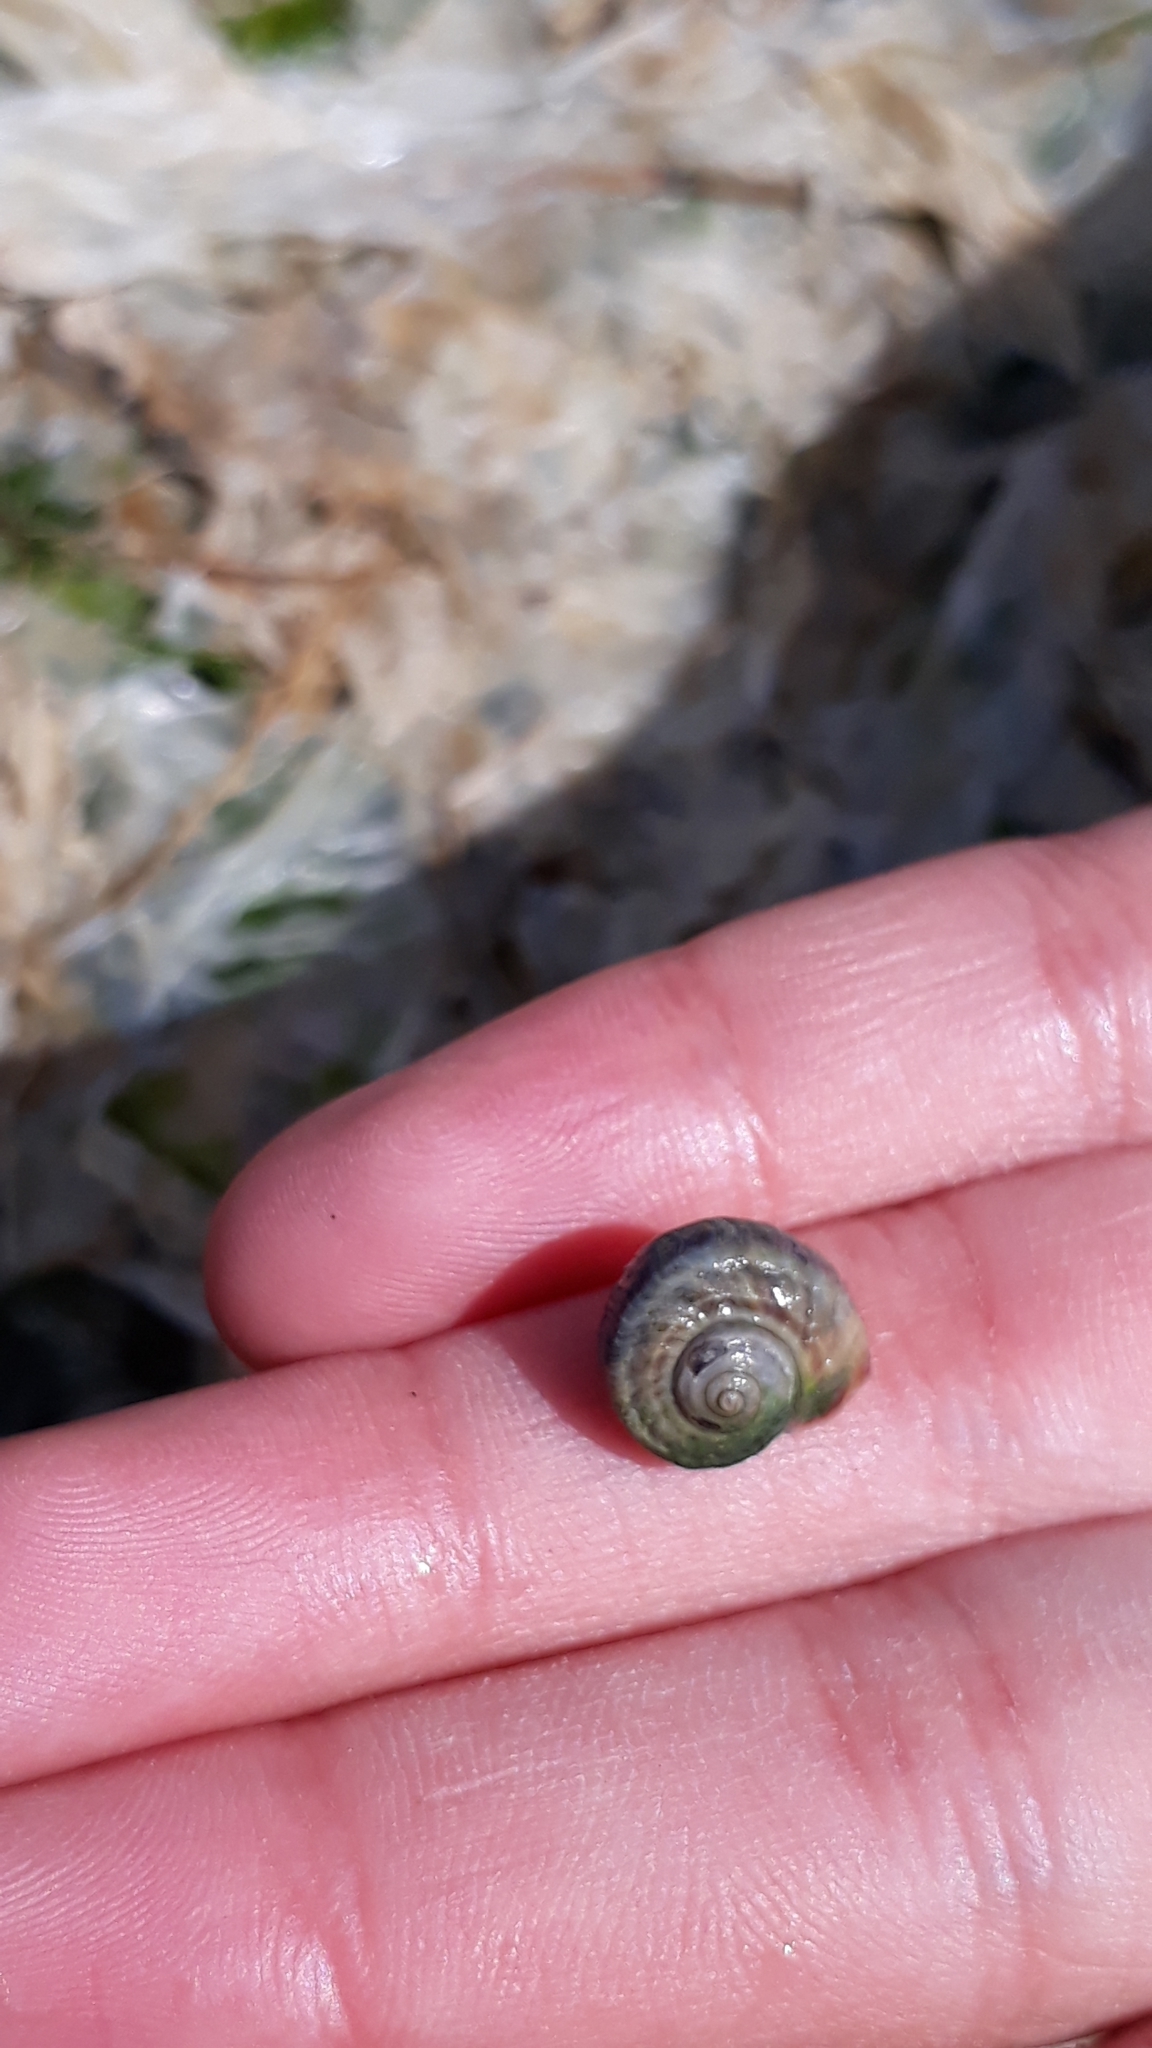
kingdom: Animalia
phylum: Mollusca
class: Gastropoda
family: Amphibolidae
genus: Amphibola
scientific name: Amphibola crenata
